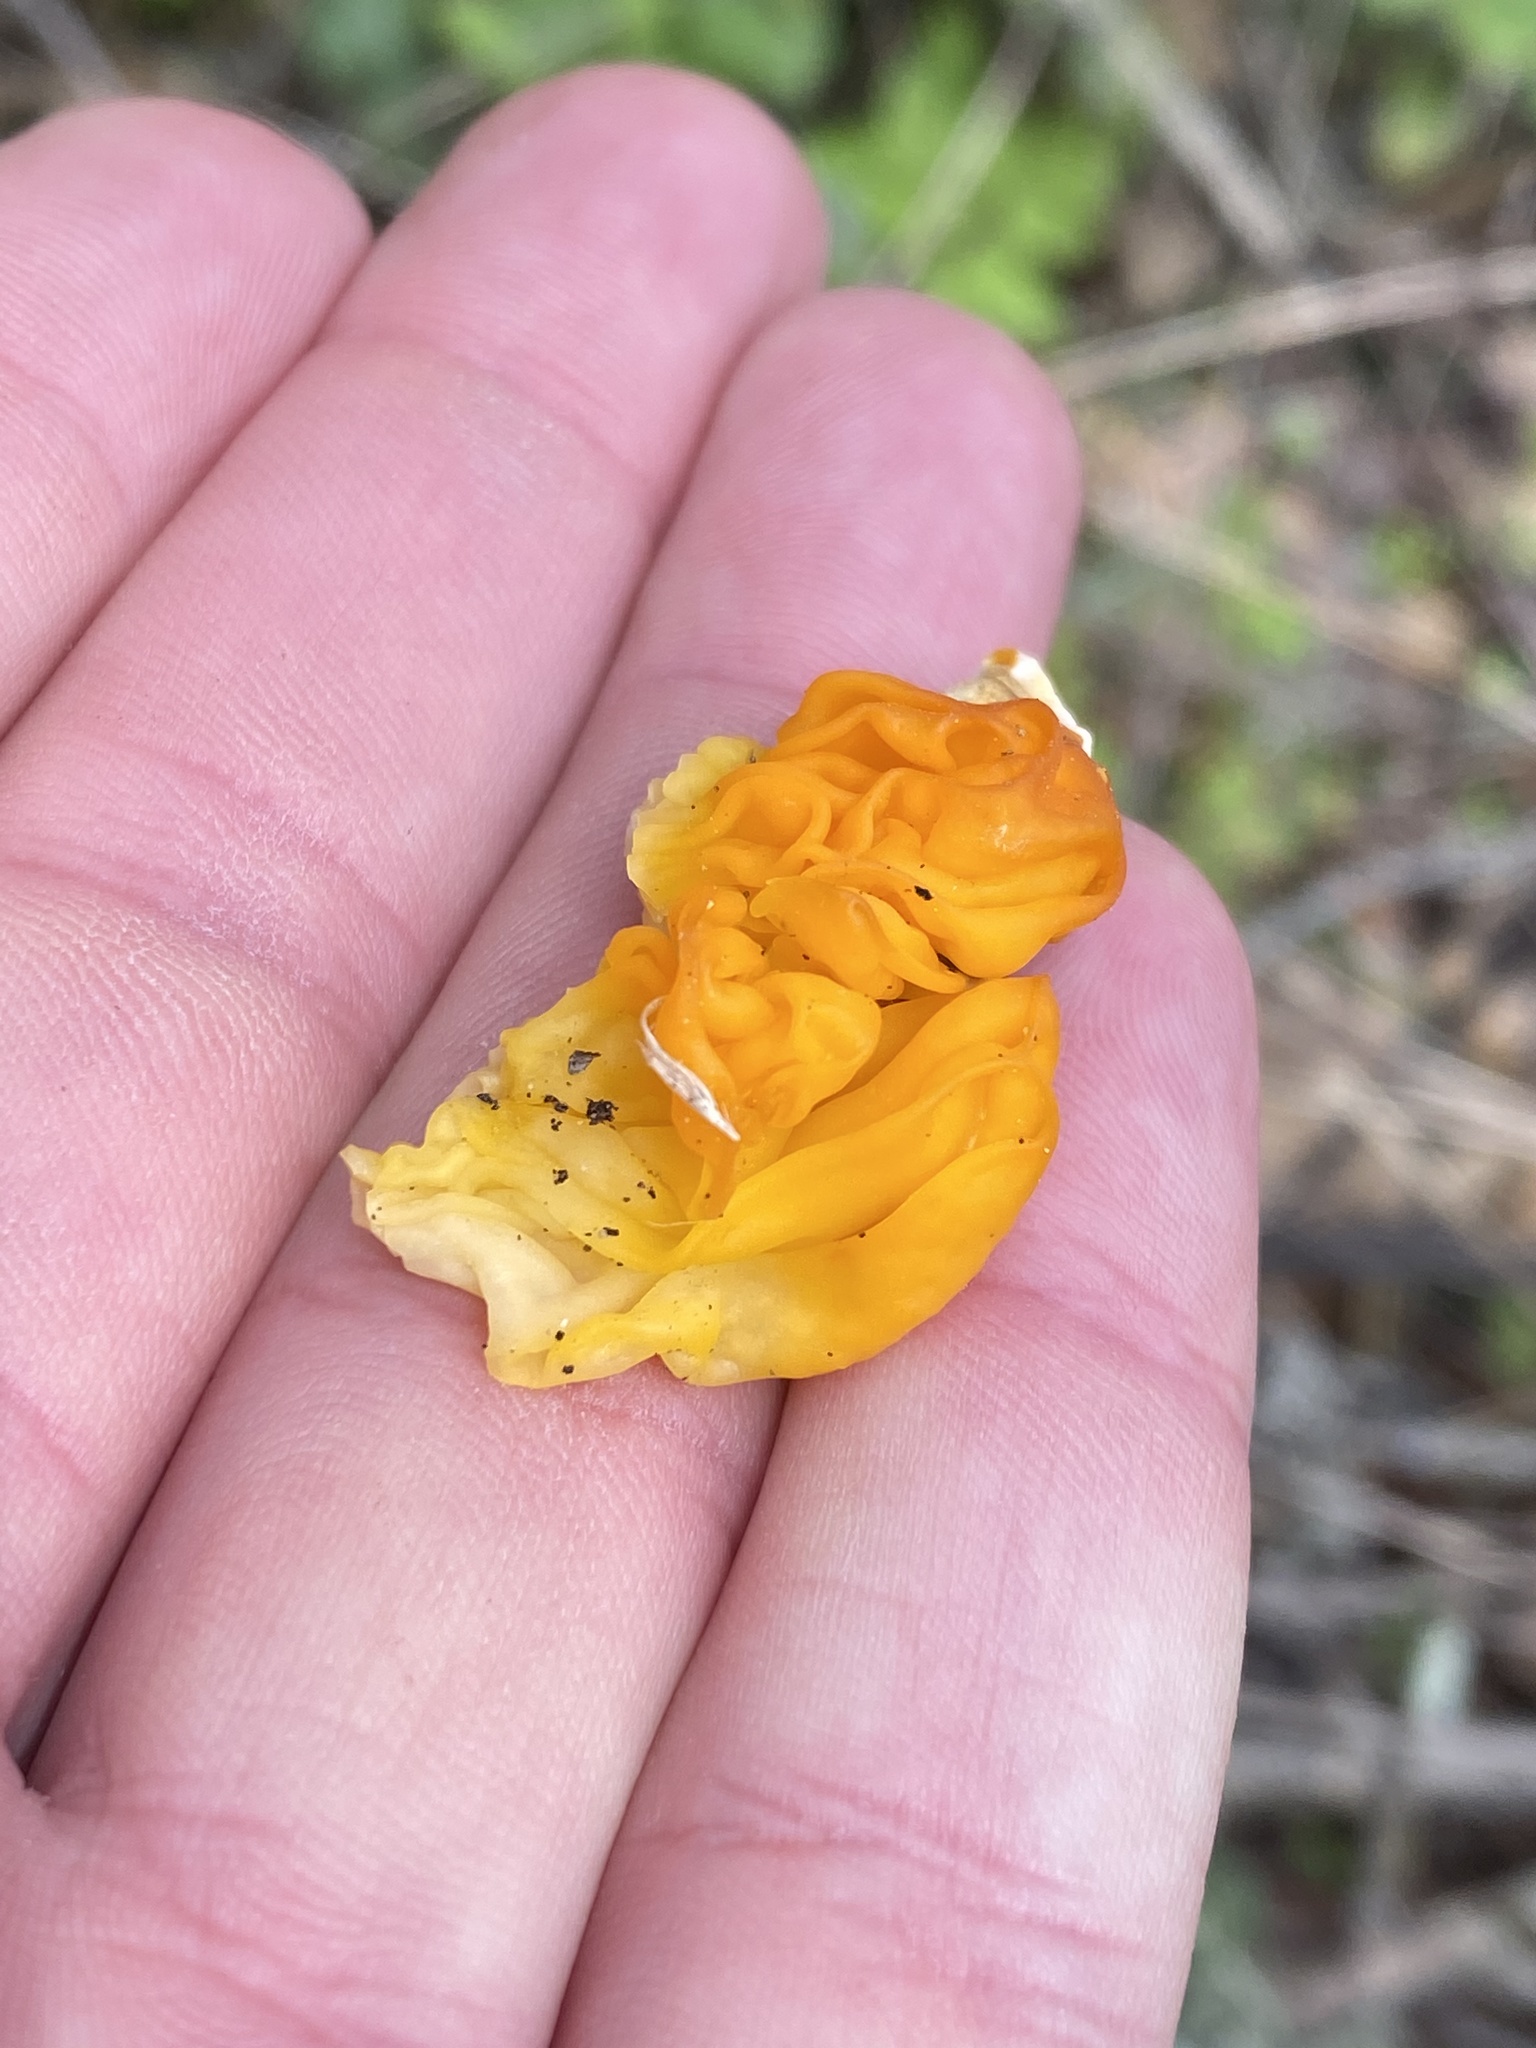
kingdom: Fungi
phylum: Basidiomycota
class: Tremellomycetes
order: Tremellales
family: Naemateliaceae
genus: Naematelia
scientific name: Naematelia aurantia
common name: Golden ear
